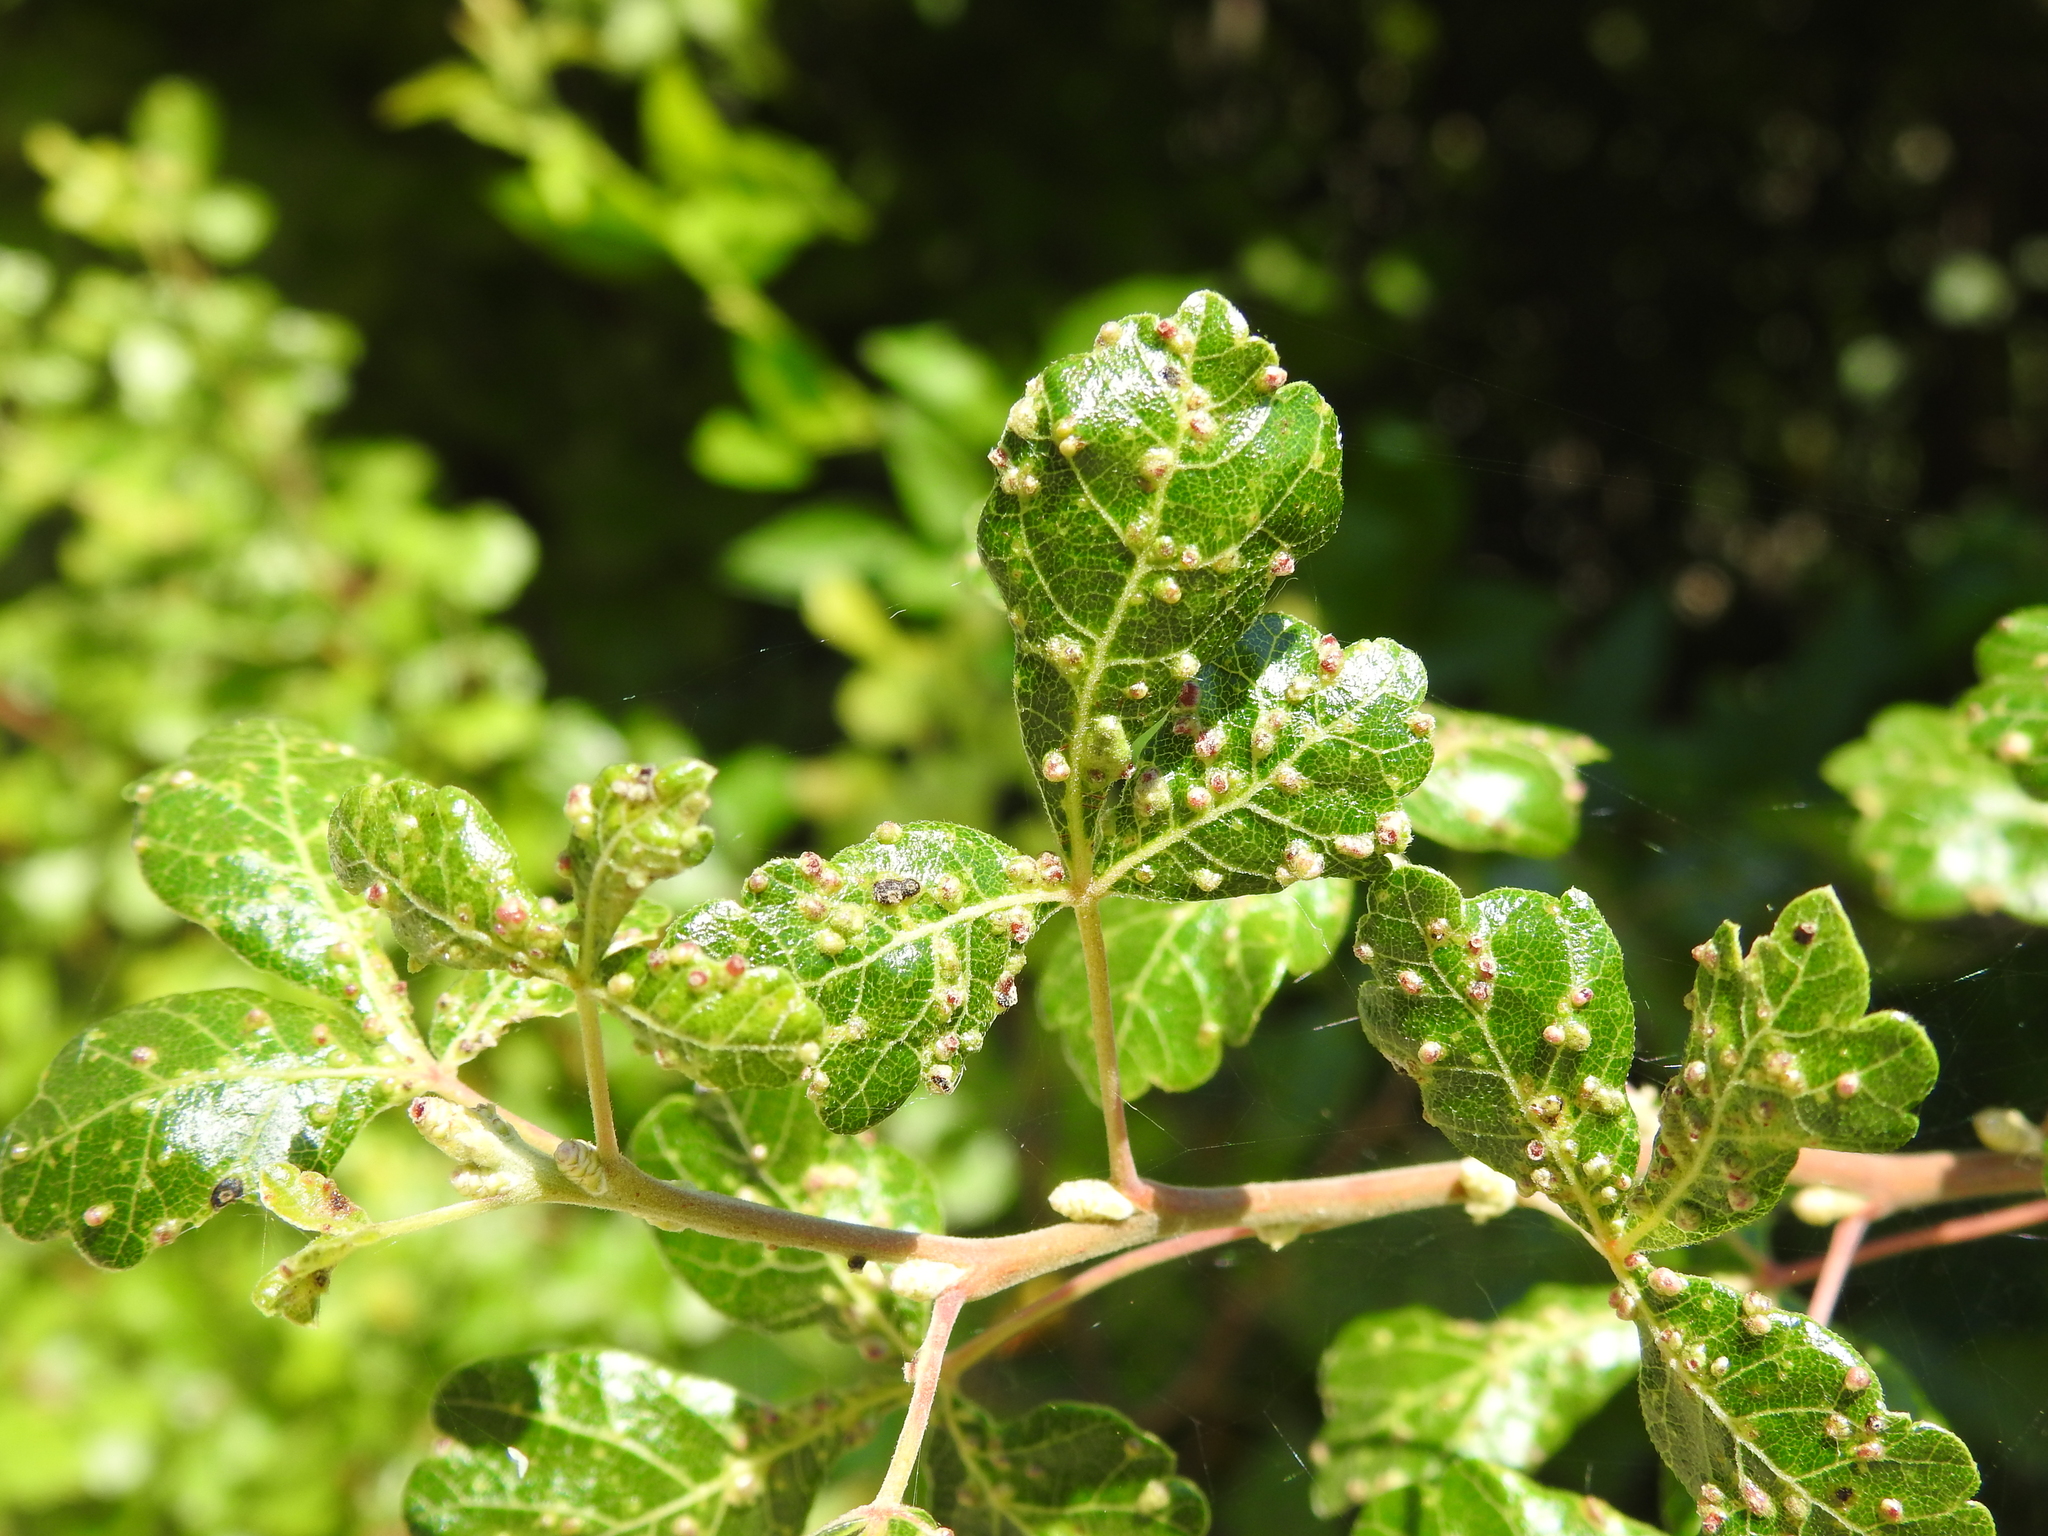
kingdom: Animalia
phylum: Arthropoda
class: Arachnida
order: Trombidiformes
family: Eriophyidae
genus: Aculops
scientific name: Aculops
